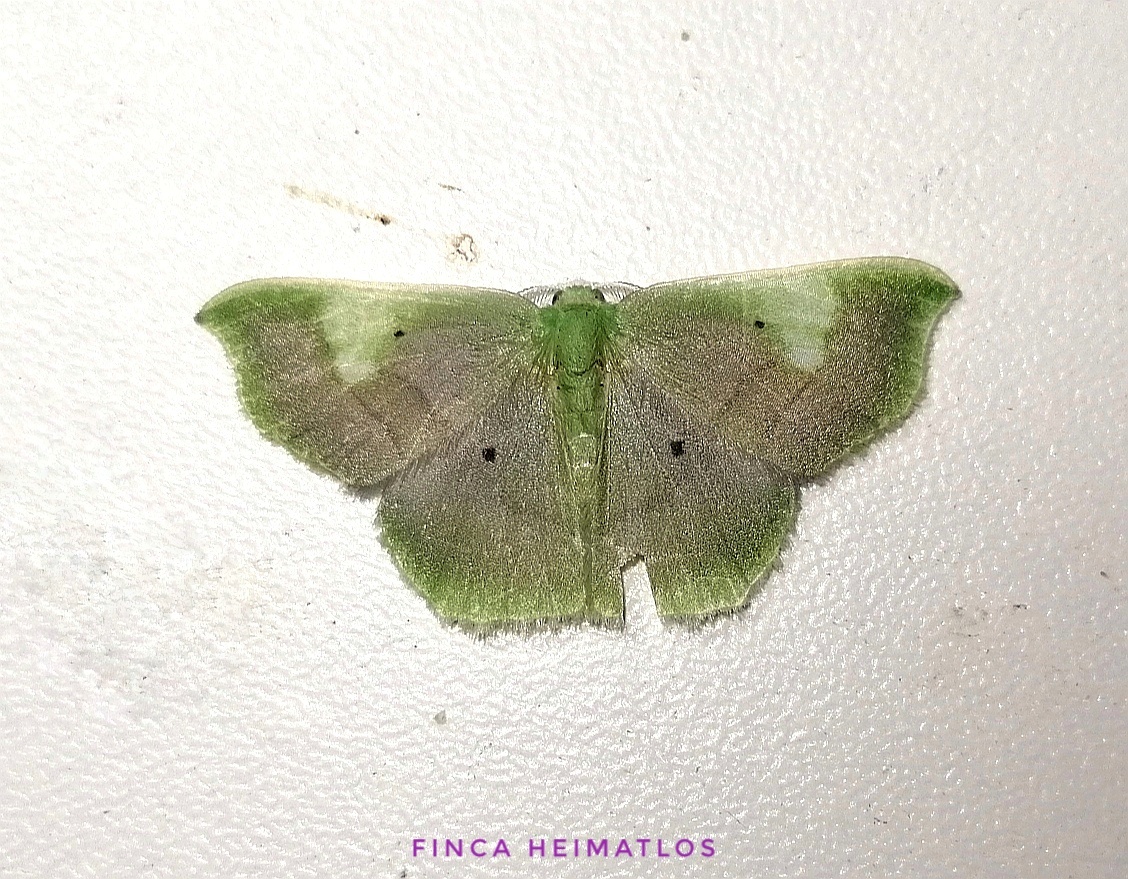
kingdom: Animalia
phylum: Arthropoda
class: Insecta
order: Lepidoptera
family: Geometridae
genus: Lissocentra
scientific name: Lissocentra
